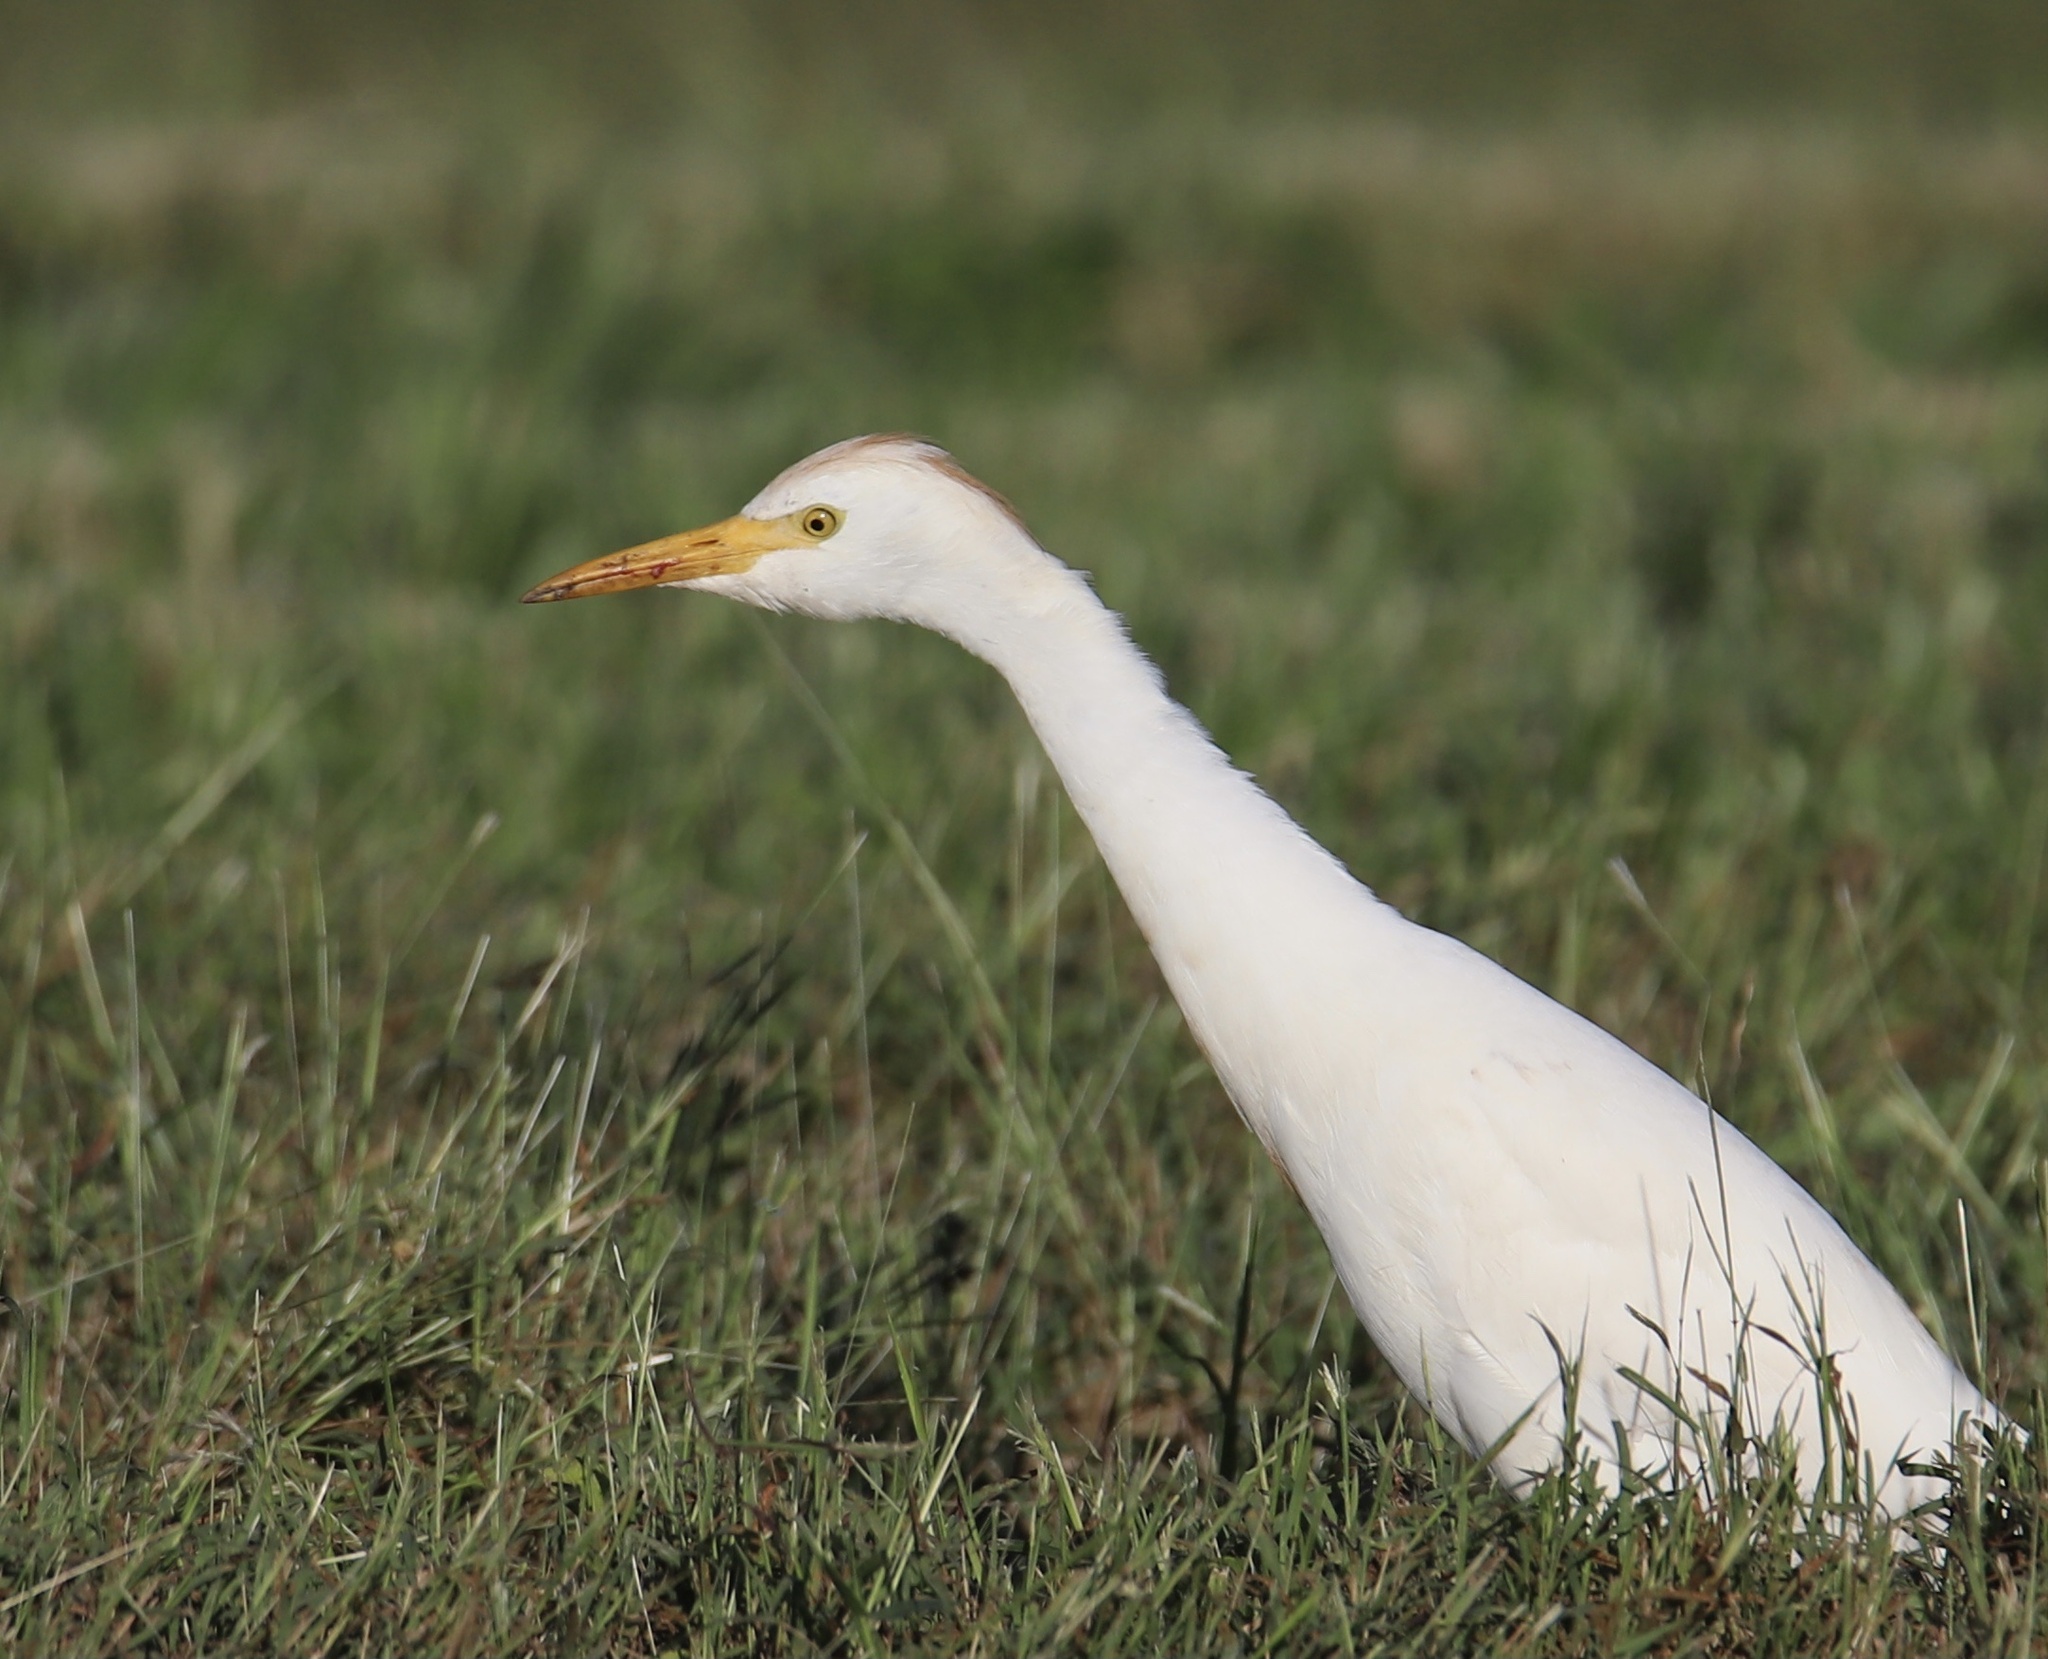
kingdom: Animalia
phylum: Chordata
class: Aves
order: Pelecaniformes
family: Ardeidae
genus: Bubulcus
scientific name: Bubulcus ibis
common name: Cattle egret
